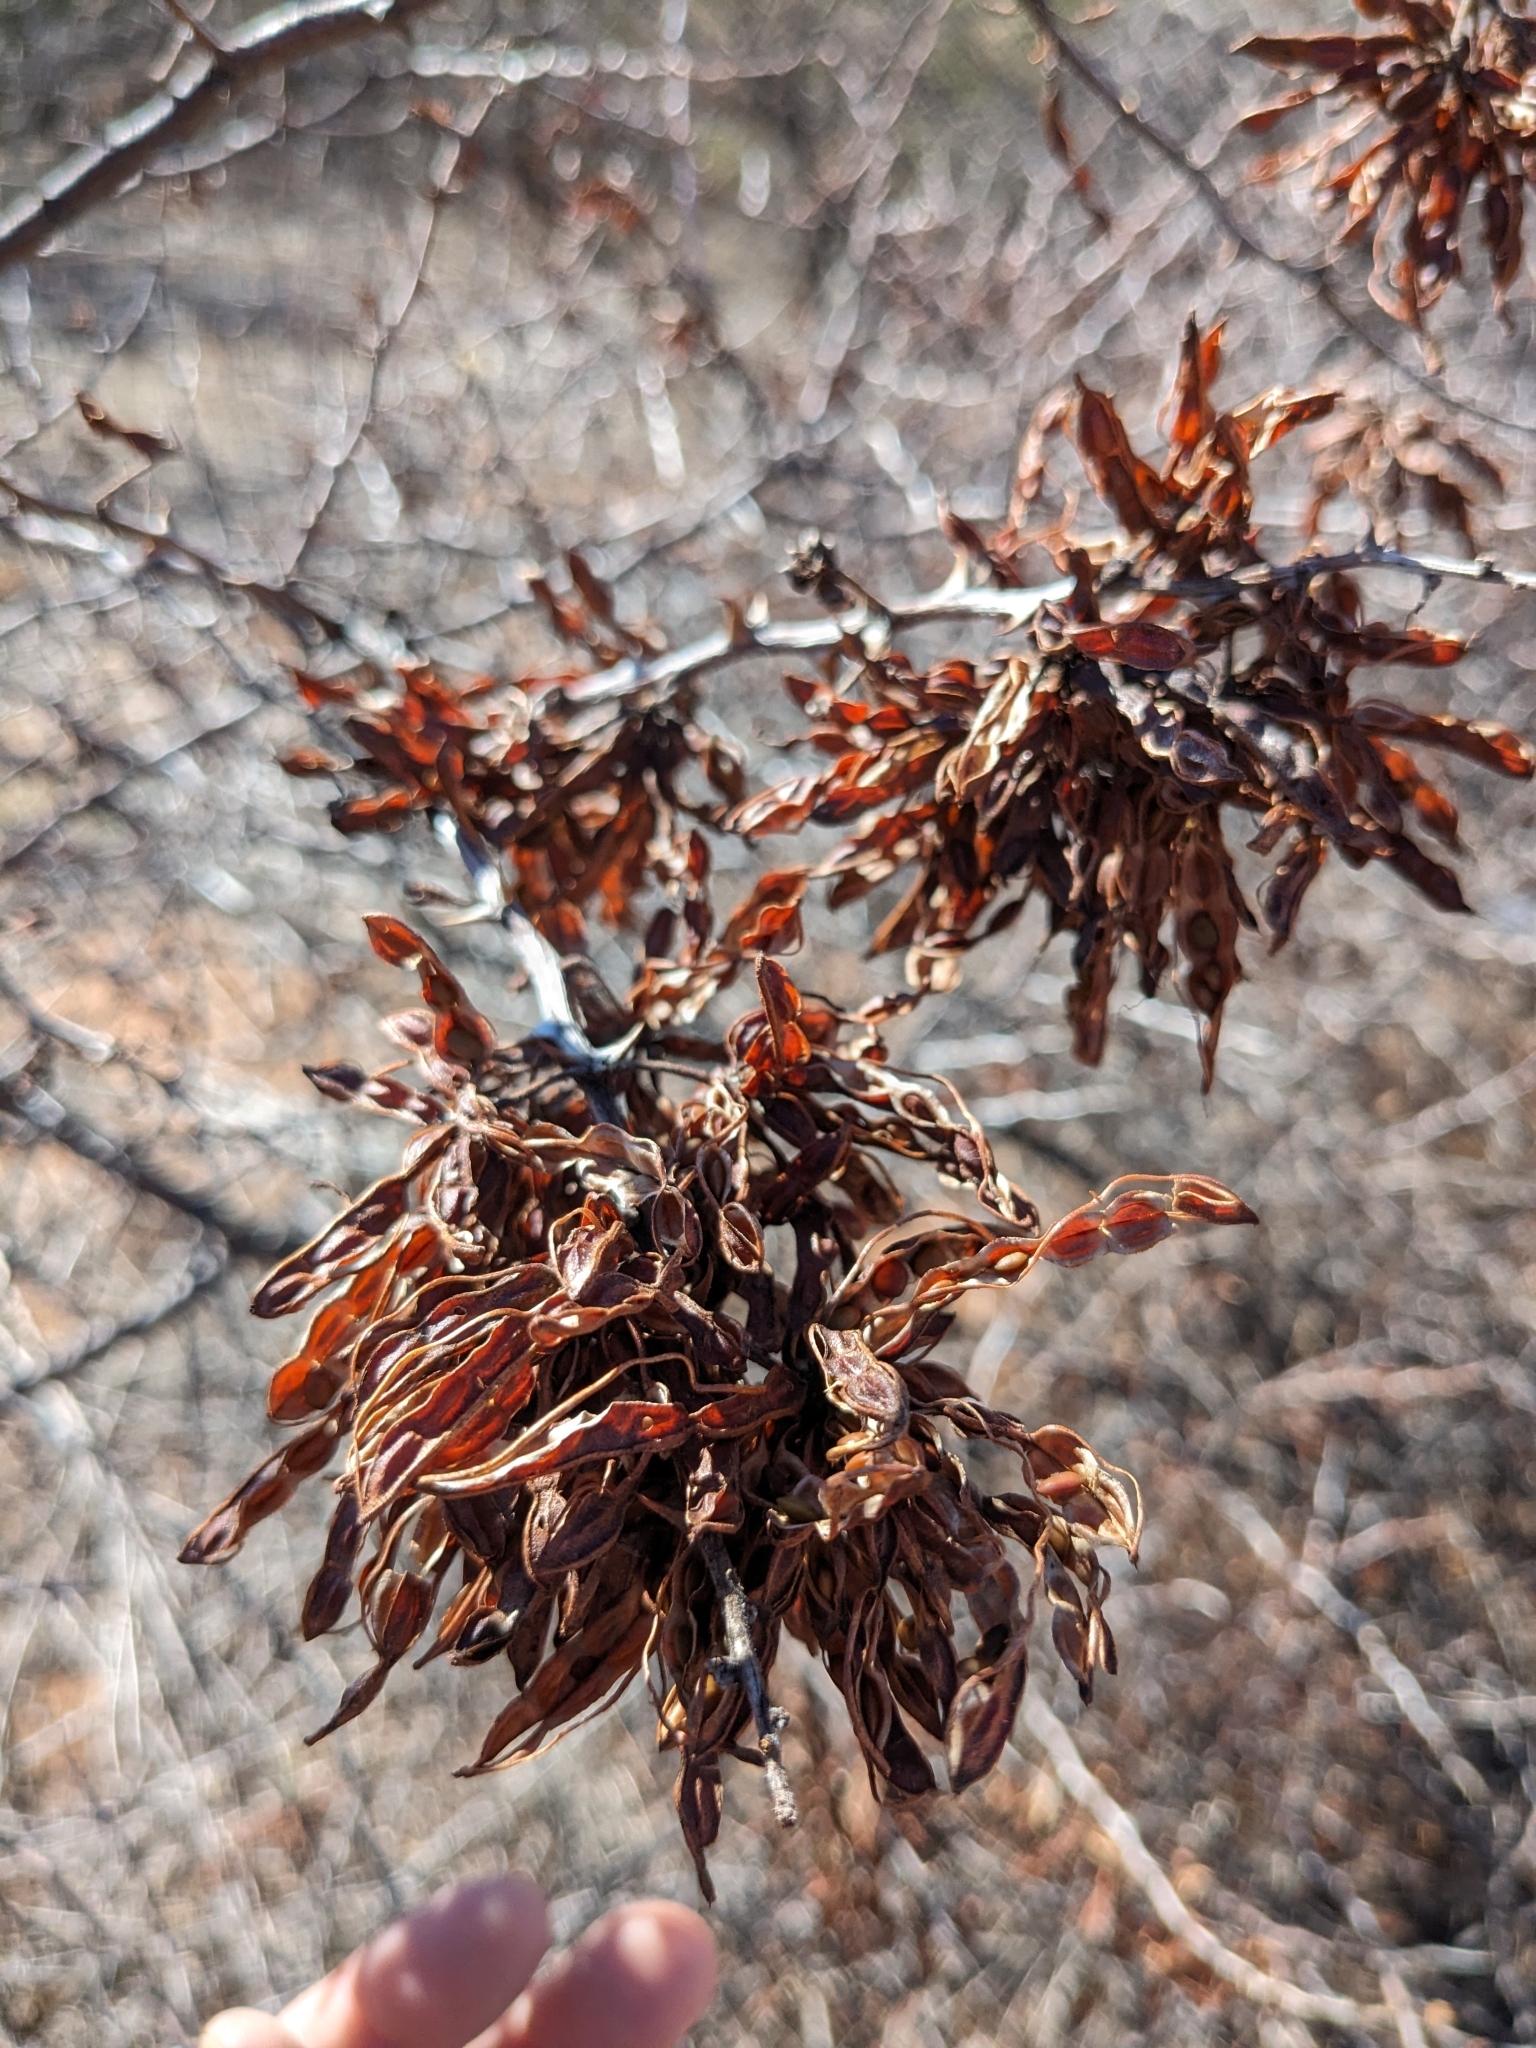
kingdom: Plantae
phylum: Tracheophyta
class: Magnoliopsida
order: Fabales
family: Fabaceae
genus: Mimosa
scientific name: Mimosa biuncifera
